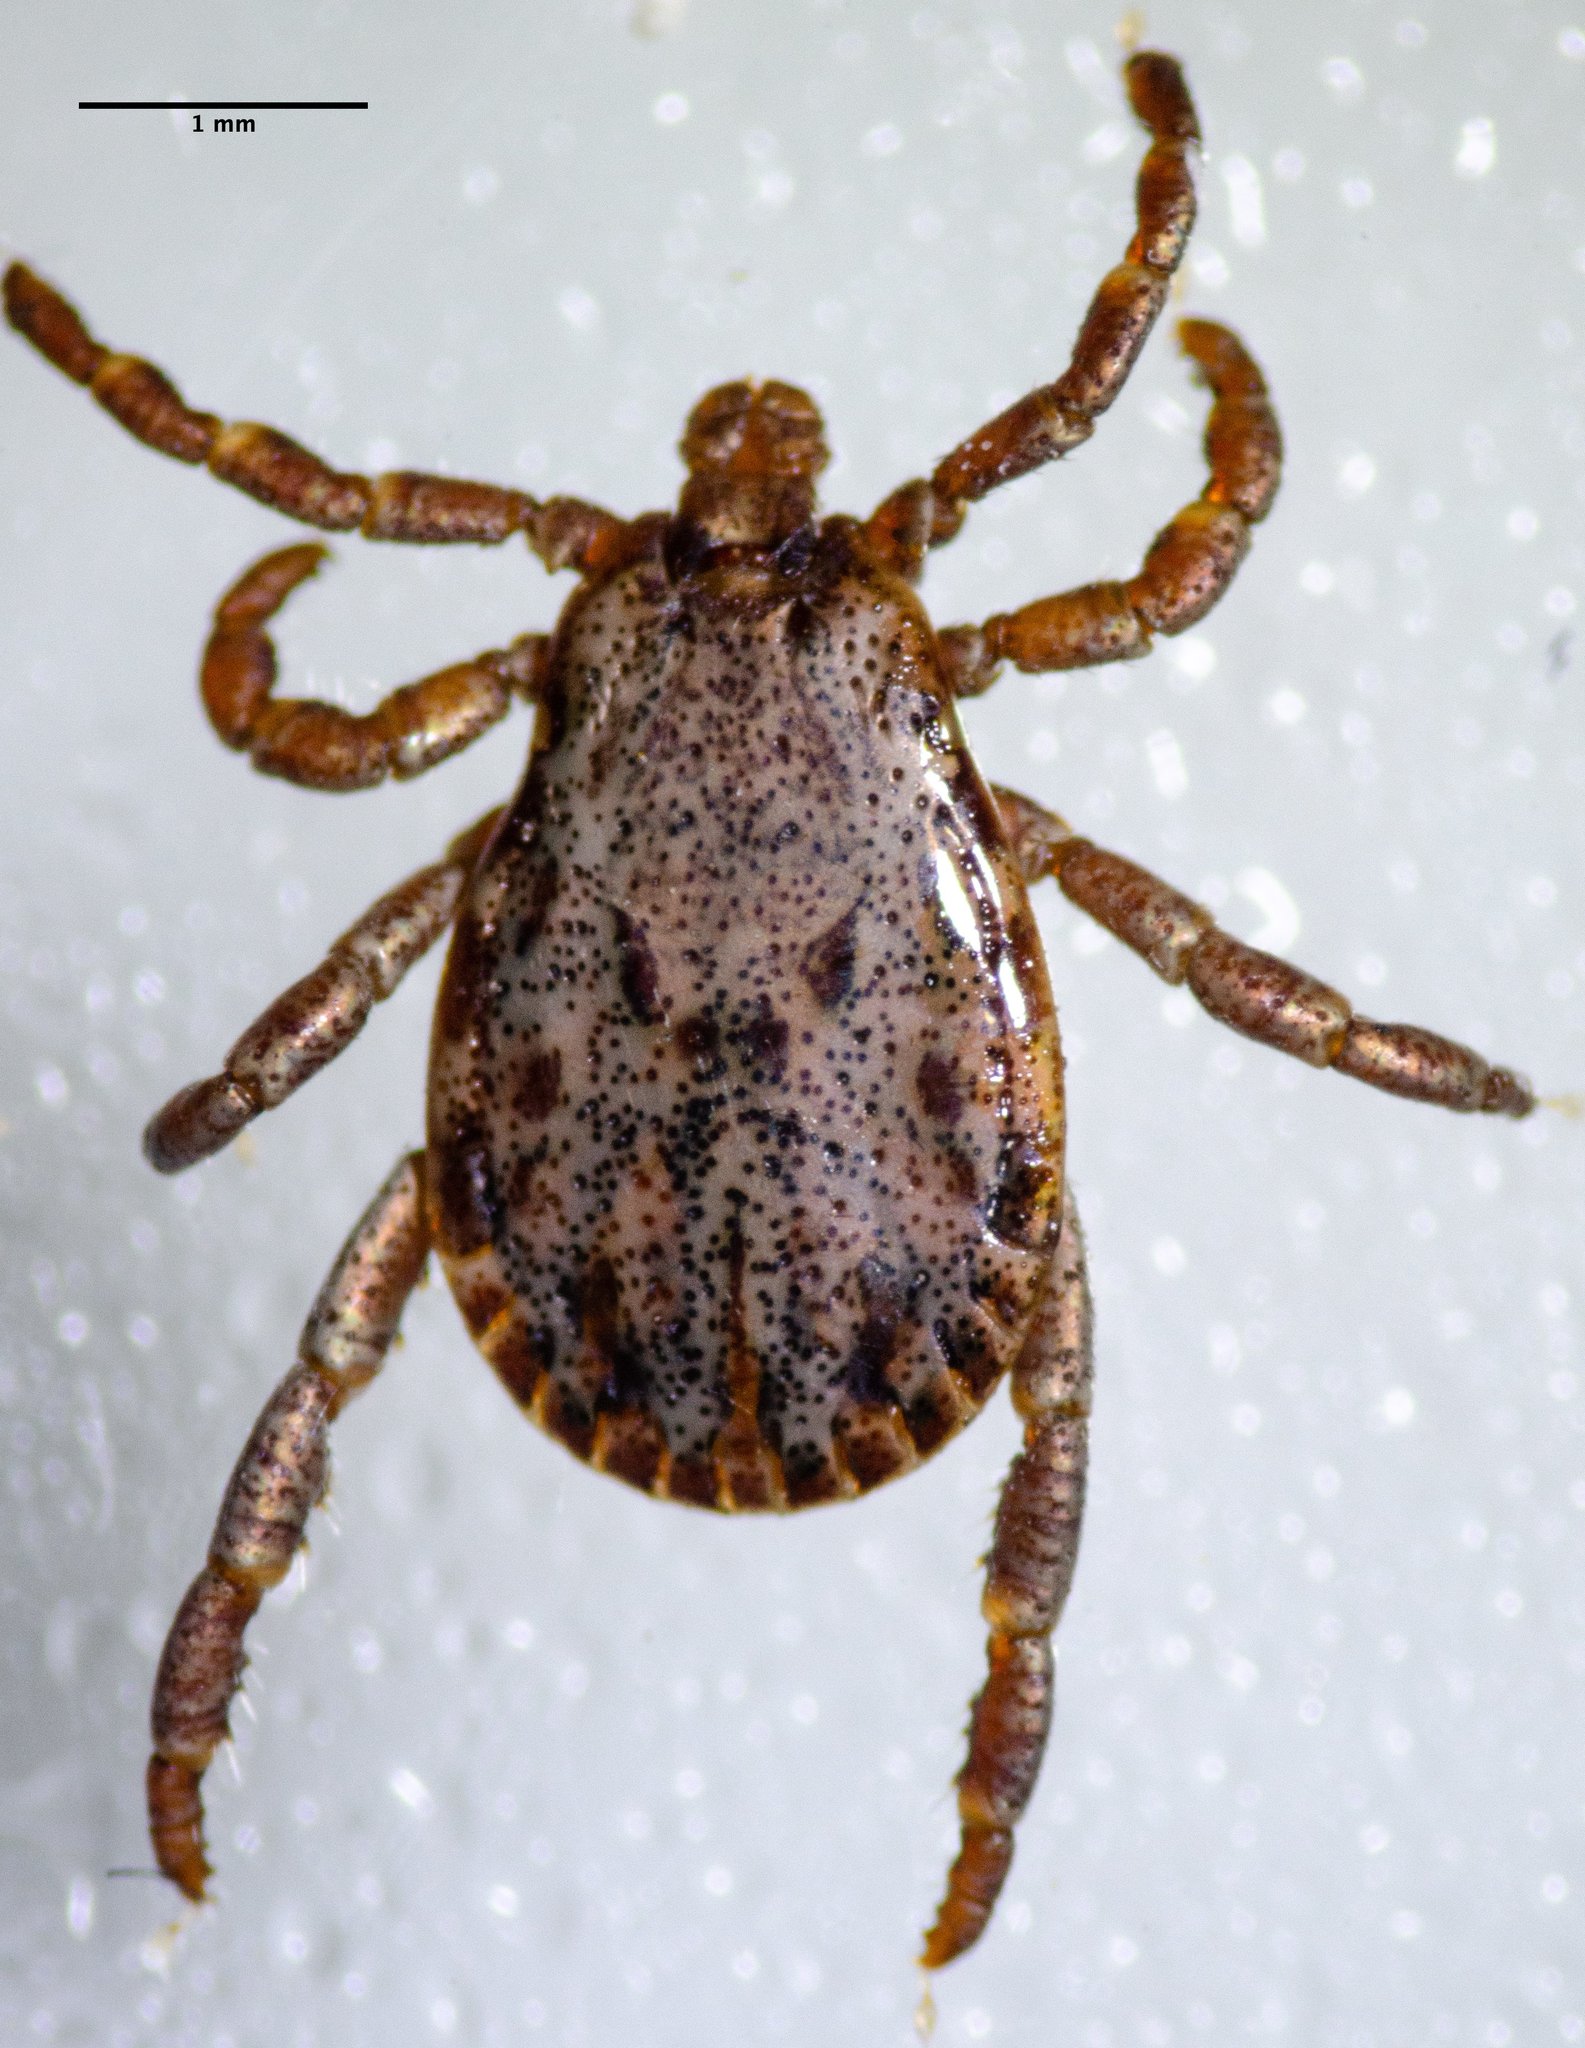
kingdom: Animalia
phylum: Arthropoda
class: Arachnida
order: Ixodida
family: Ixodidae
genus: Dermacentor
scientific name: Dermacentor occidentalis
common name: Net tick
